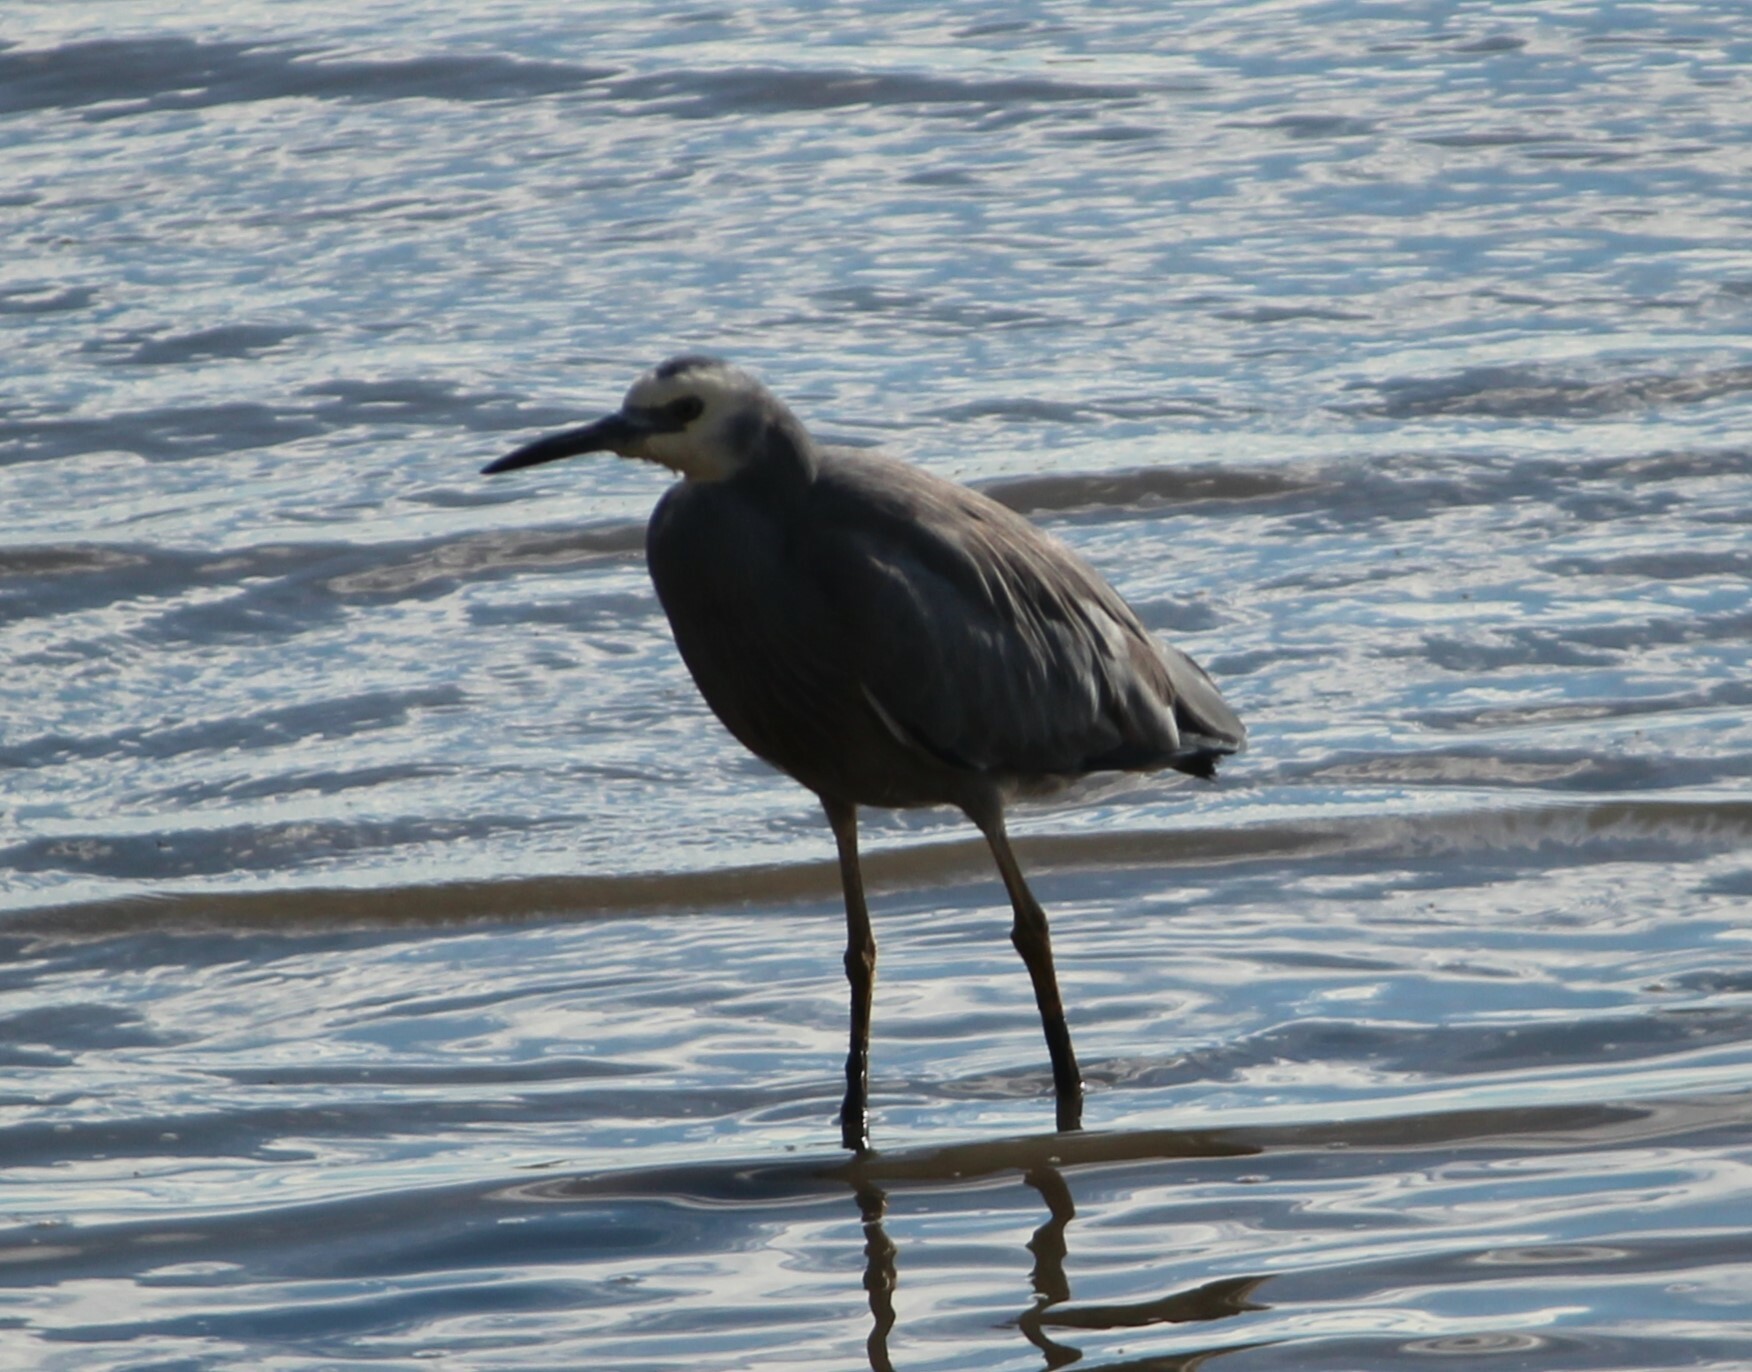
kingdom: Animalia
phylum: Chordata
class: Aves
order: Pelecaniformes
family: Ardeidae
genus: Egretta
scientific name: Egretta novaehollandiae
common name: White-faced heron
